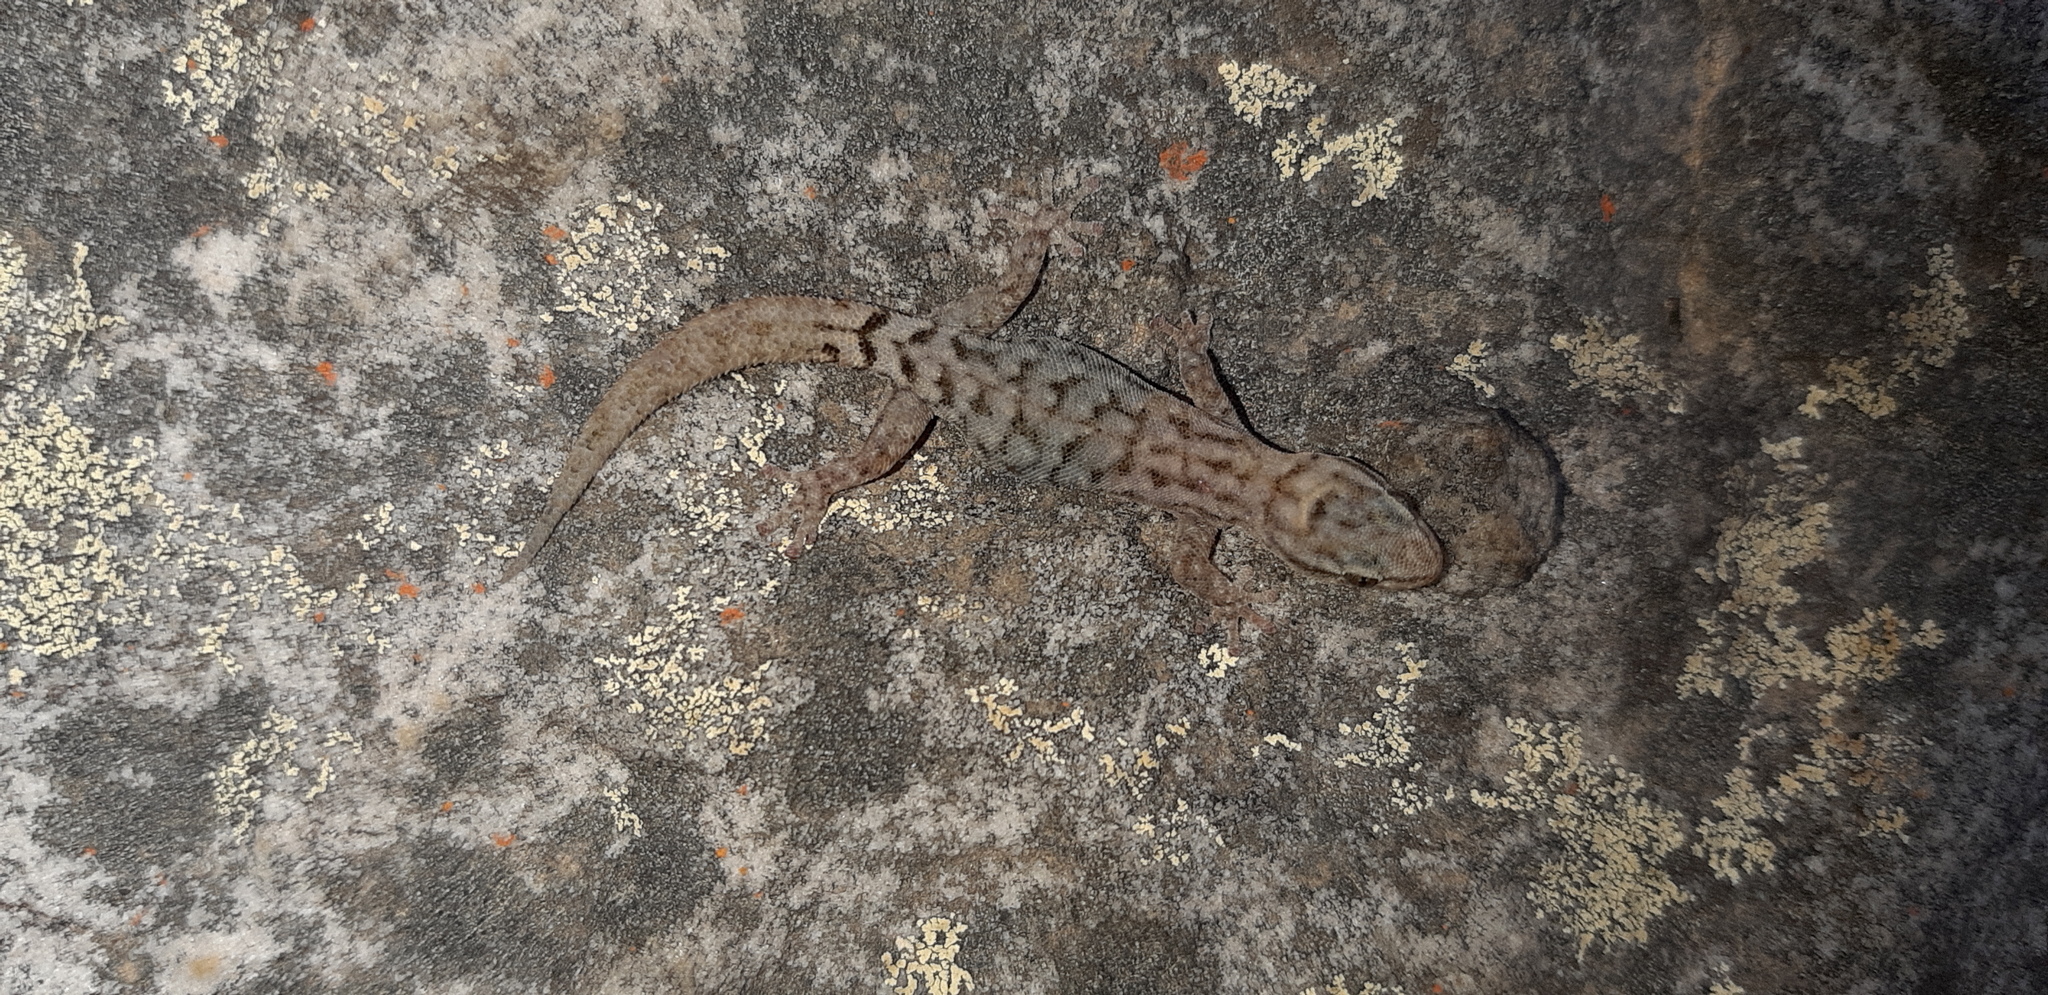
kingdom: Animalia
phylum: Chordata
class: Squamata
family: Gekkonidae
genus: Goggia
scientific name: Goggia essexi
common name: Essex’s dwarf leaf-toed gecko
